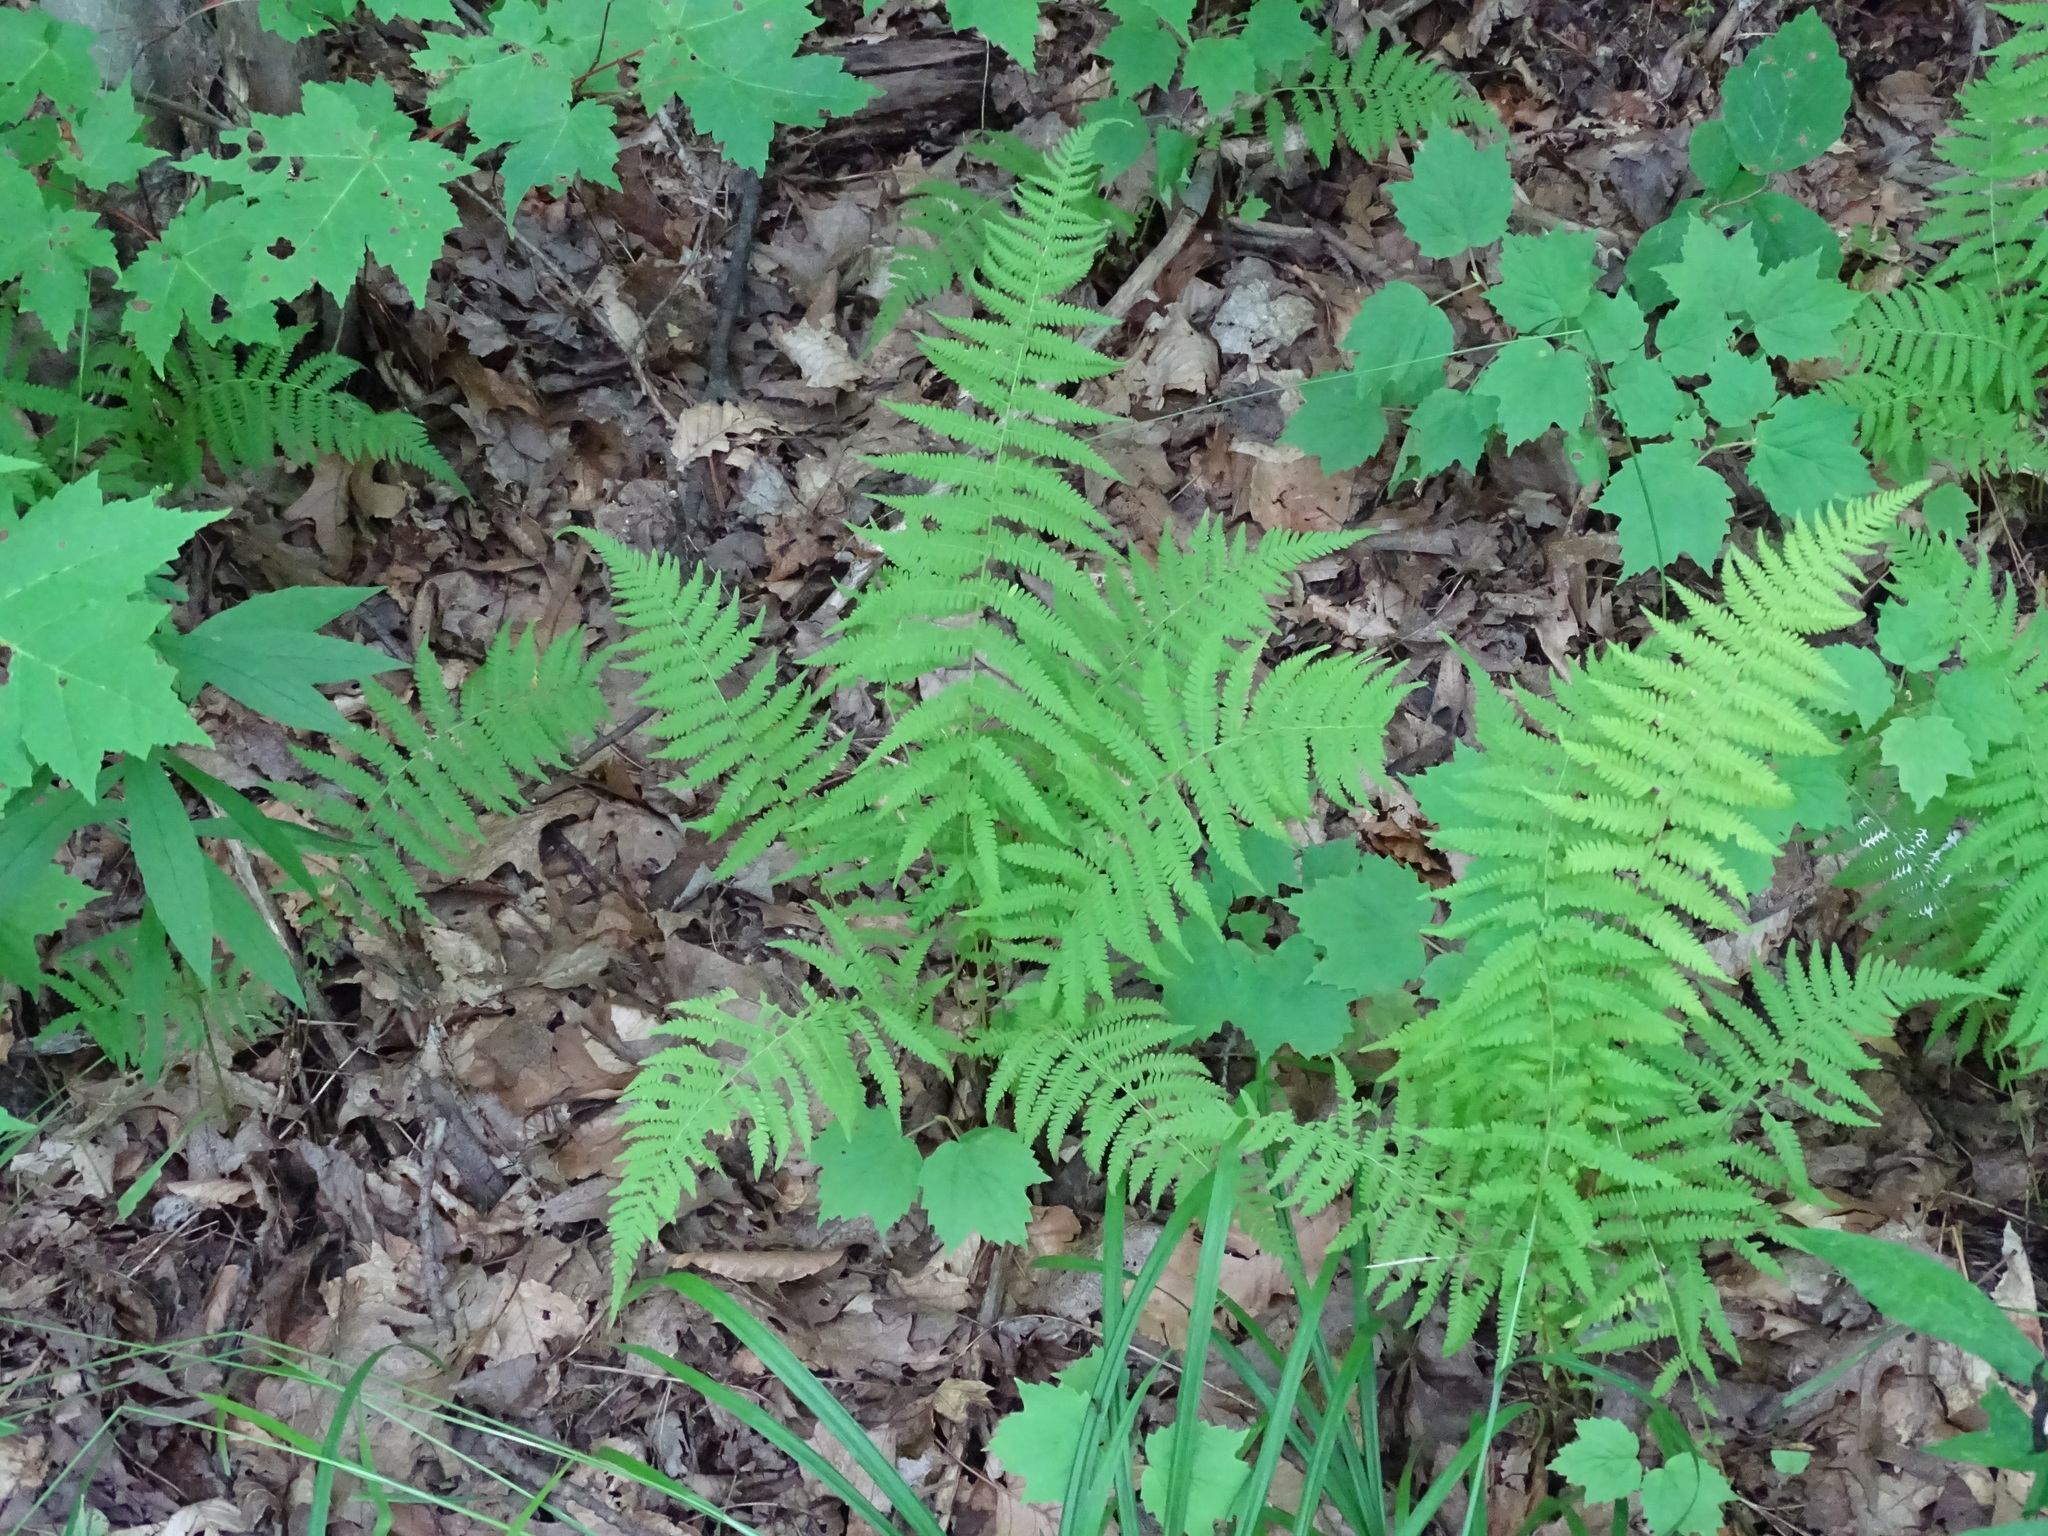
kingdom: Plantae
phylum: Tracheophyta
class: Polypodiopsida
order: Polypodiales
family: Thelypteridaceae
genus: Amauropelta
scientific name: Amauropelta noveboracensis
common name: New york fern
